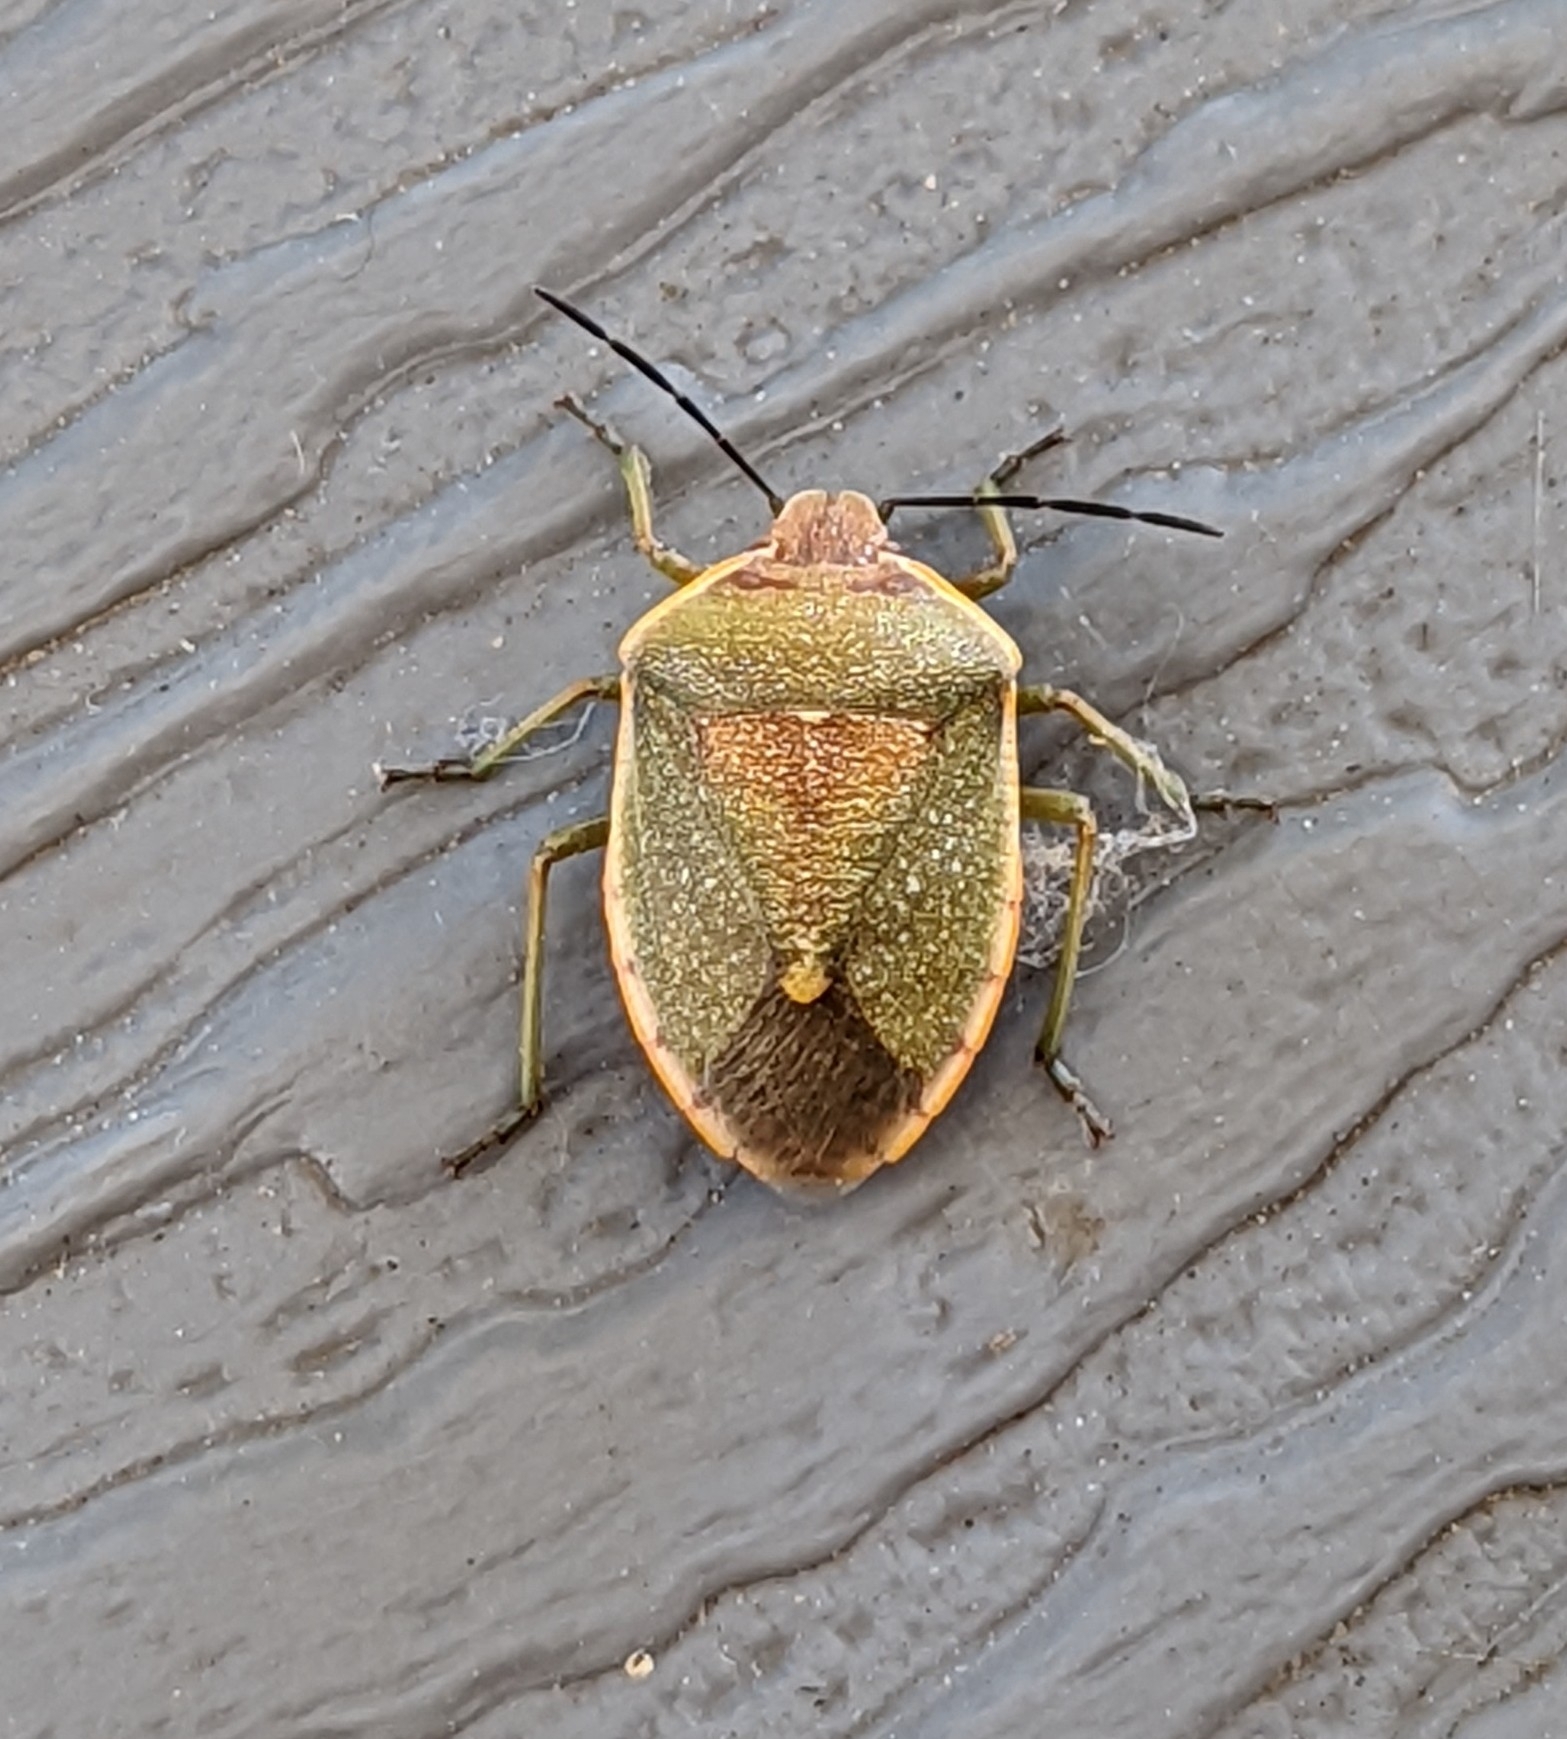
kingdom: Animalia
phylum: Arthropoda
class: Insecta
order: Hemiptera
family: Pentatomidae
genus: Chlorochroa
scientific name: Chlorochroa
